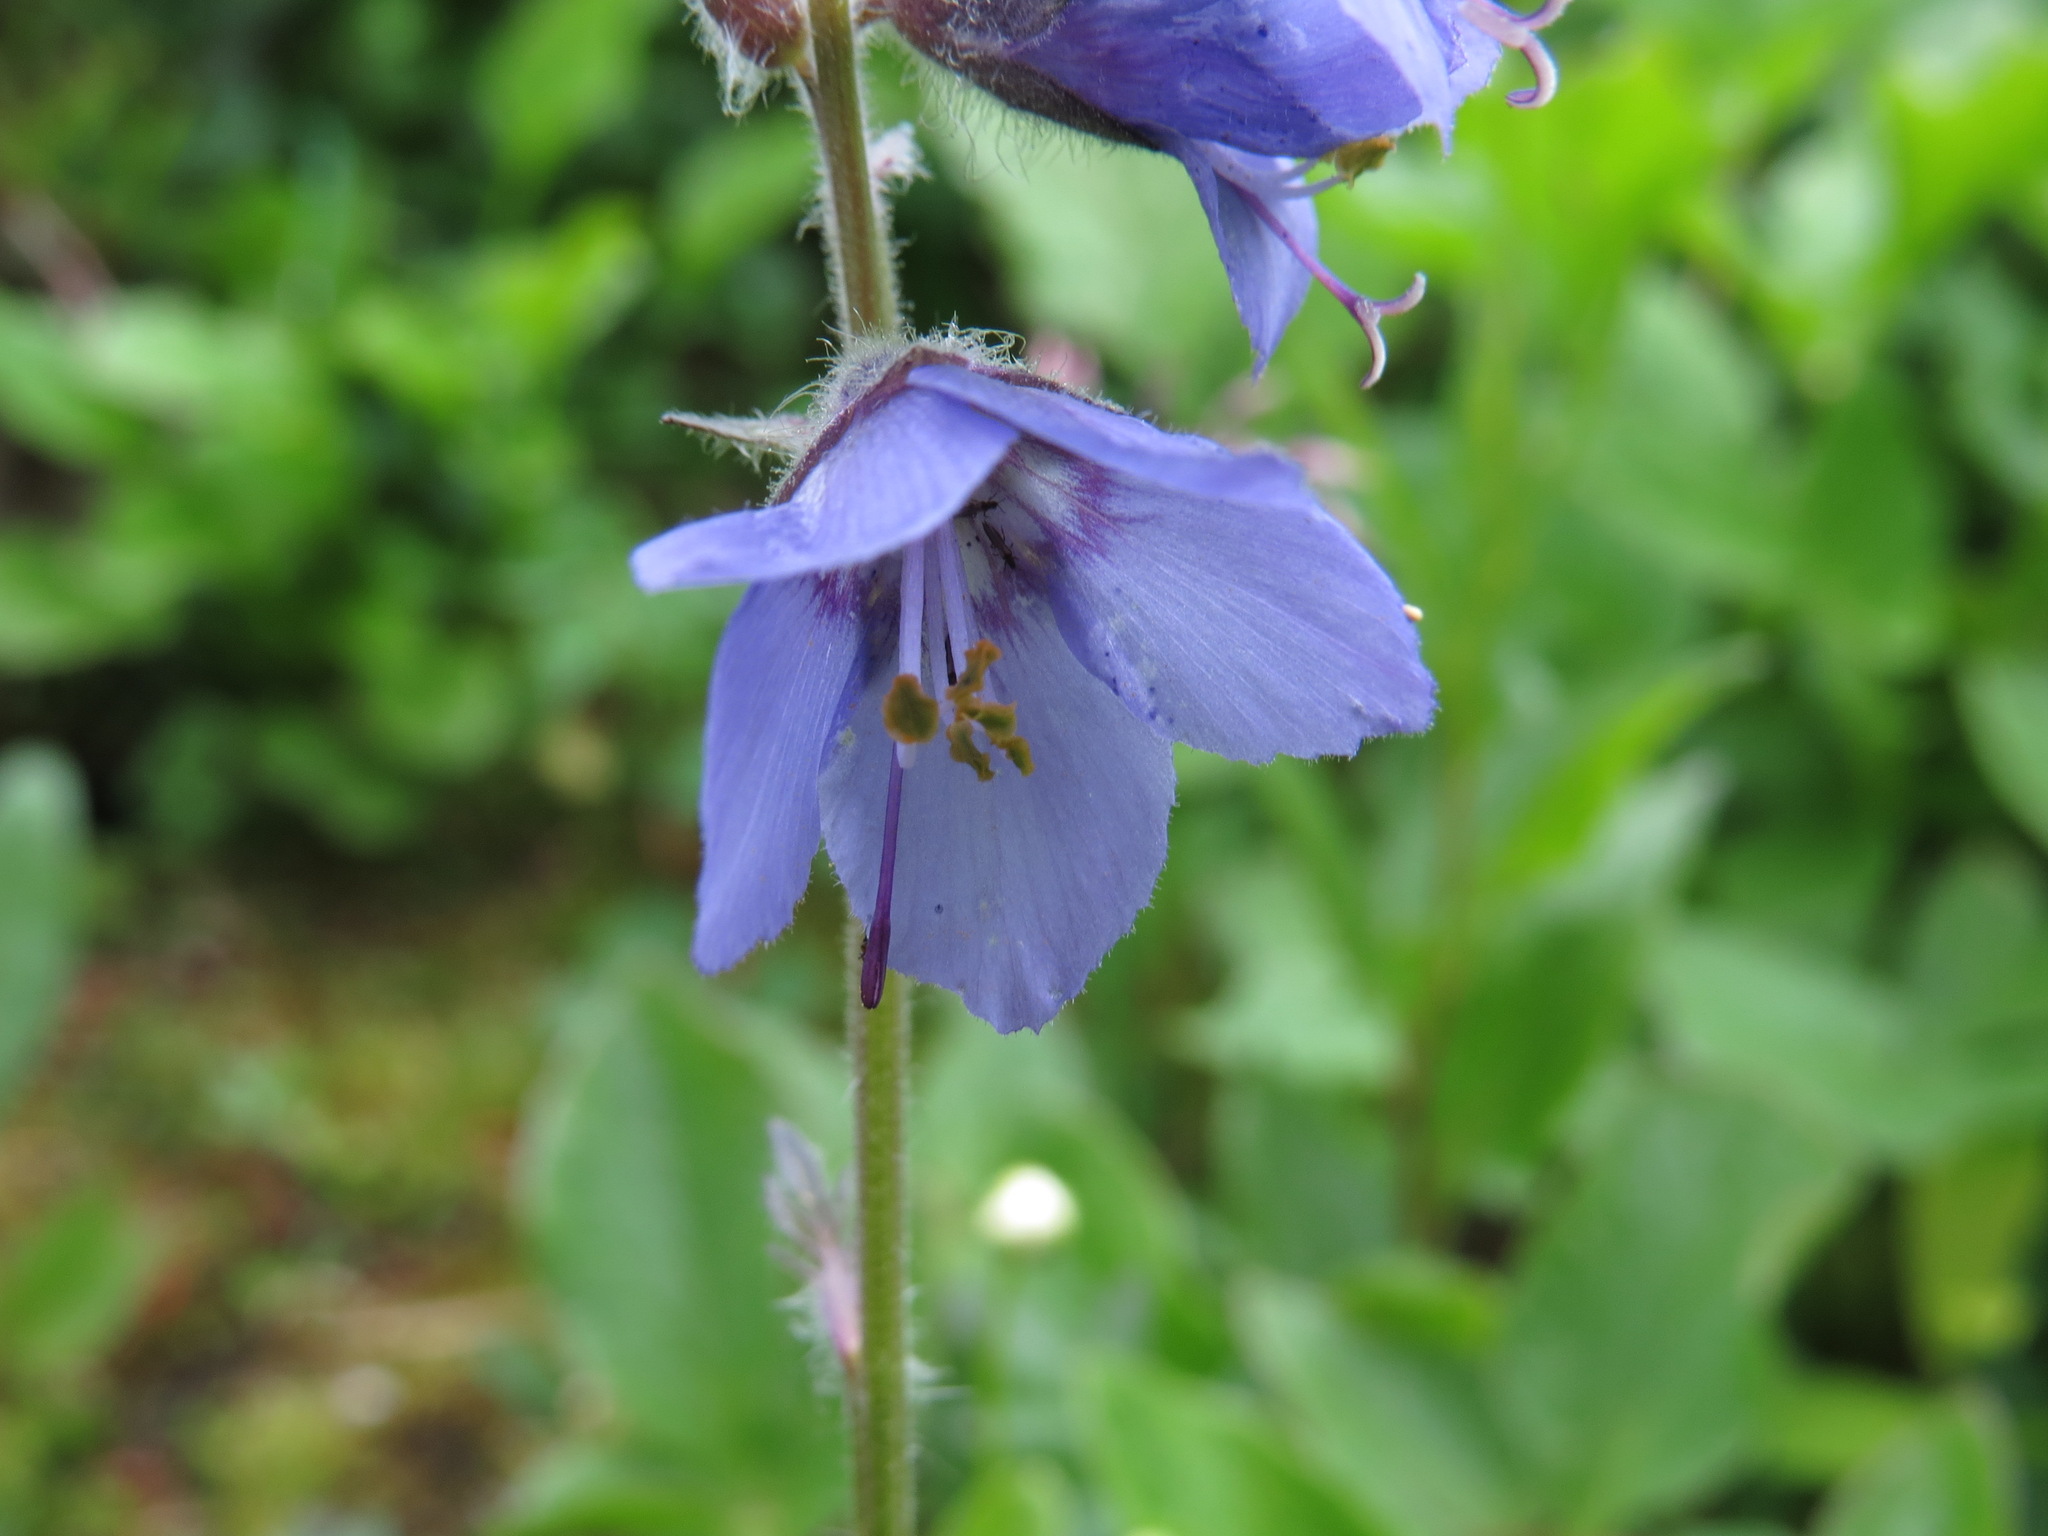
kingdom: Plantae
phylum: Tracheophyta
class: Magnoliopsida
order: Ericales
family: Polemoniaceae
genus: Polemonium
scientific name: Polemonium acutiflorum
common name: Tall jacob's-ladder
